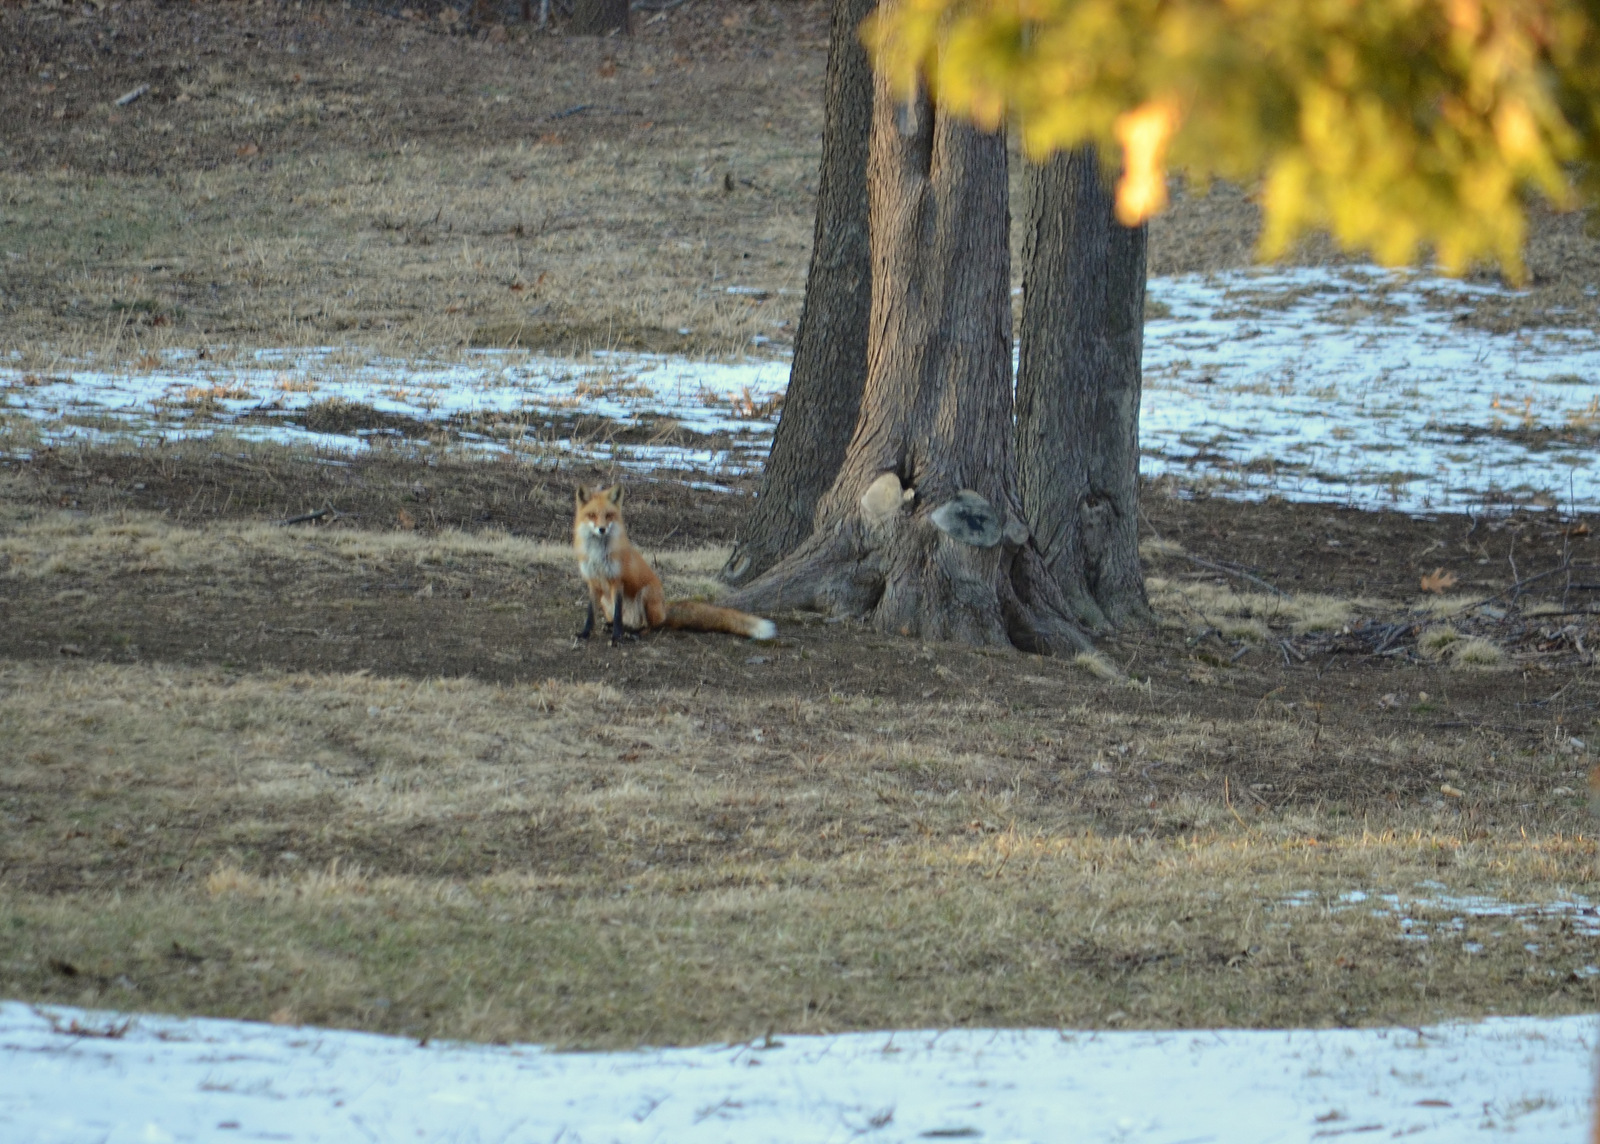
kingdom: Animalia
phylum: Chordata
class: Mammalia
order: Carnivora
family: Canidae
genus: Vulpes
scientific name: Vulpes vulpes
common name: Red fox
